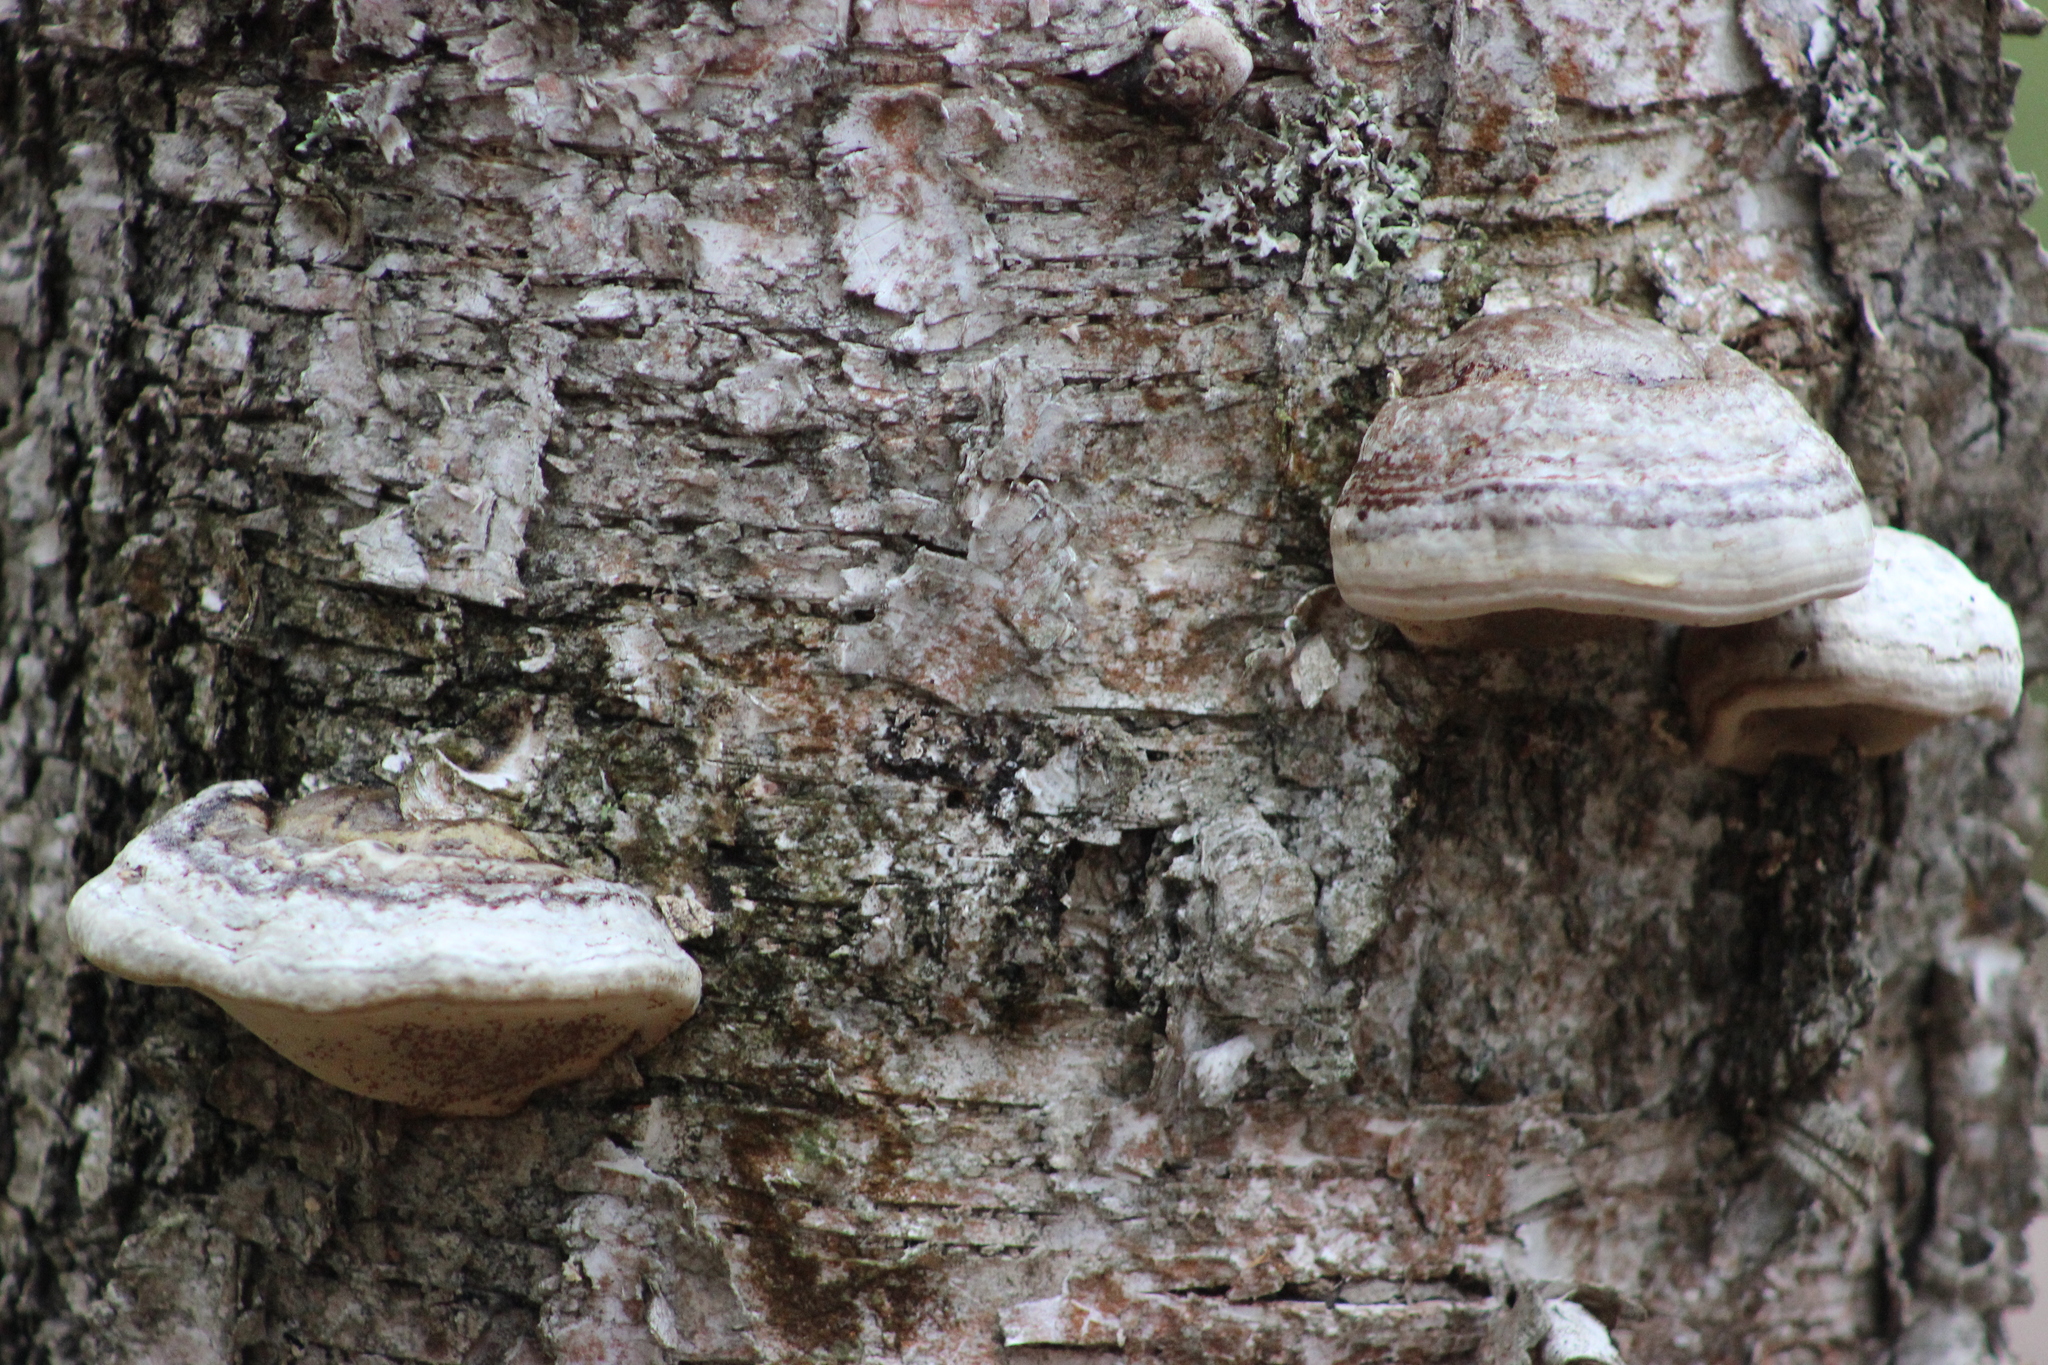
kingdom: Fungi
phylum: Basidiomycota
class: Agaricomycetes
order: Polyporales
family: Polyporaceae
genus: Fomes
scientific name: Fomes fomentarius
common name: Hoof fungus
